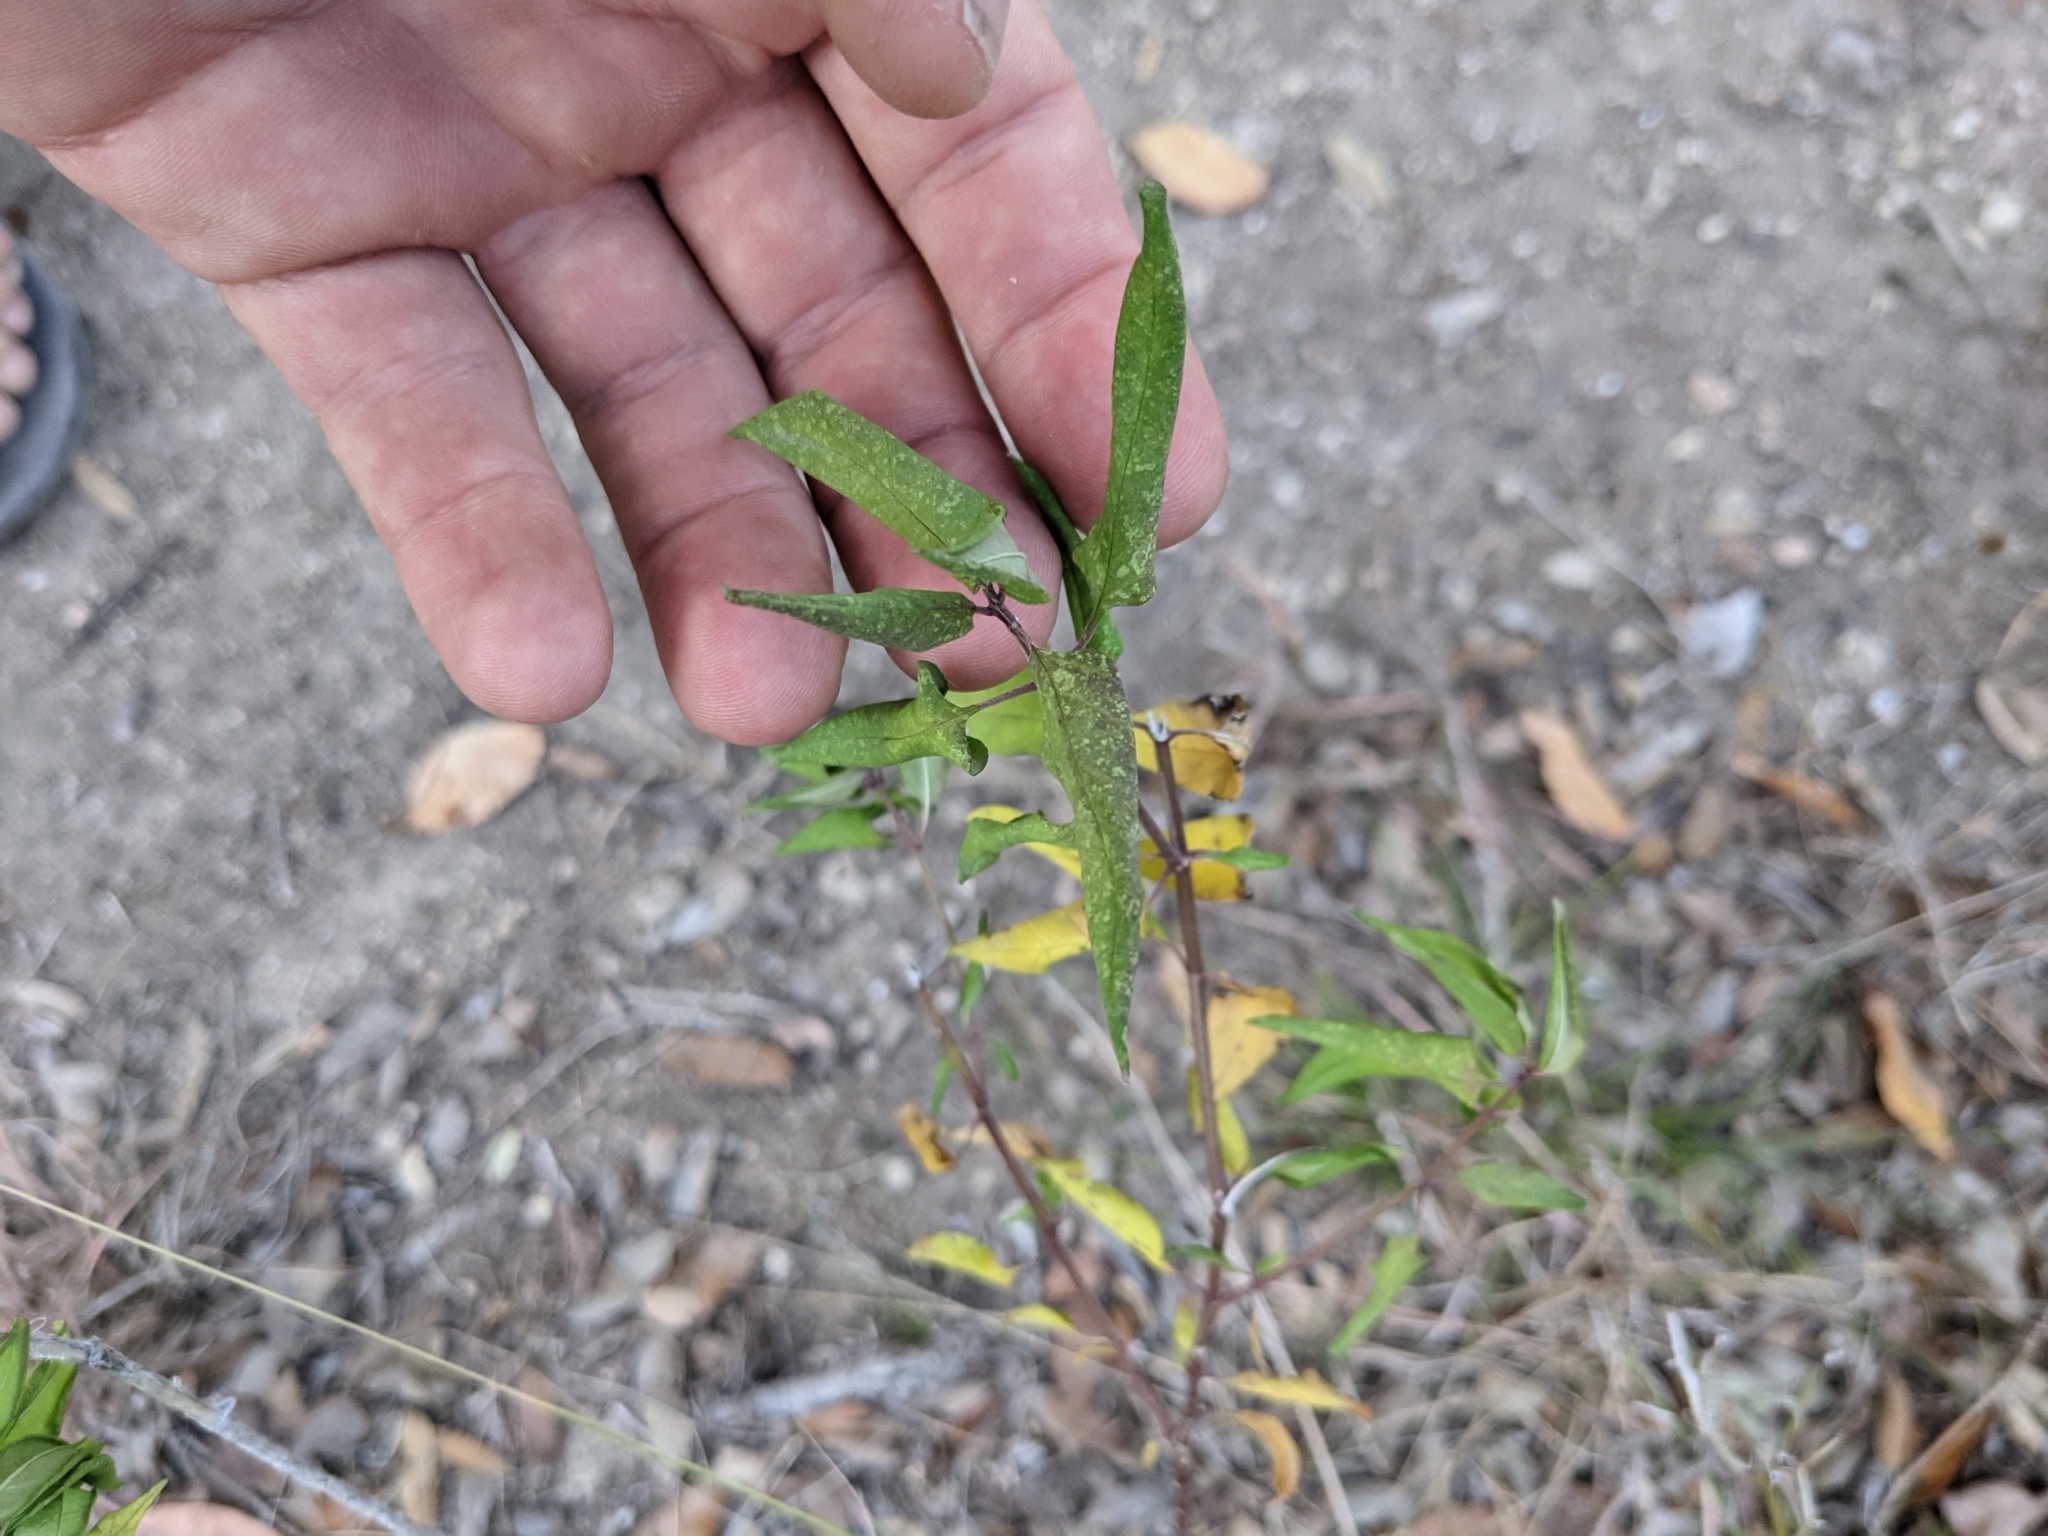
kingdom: Plantae
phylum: Tracheophyta
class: Magnoliopsida
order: Gentianales
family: Apocynaceae
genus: Asclepias
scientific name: Asclepias texana
